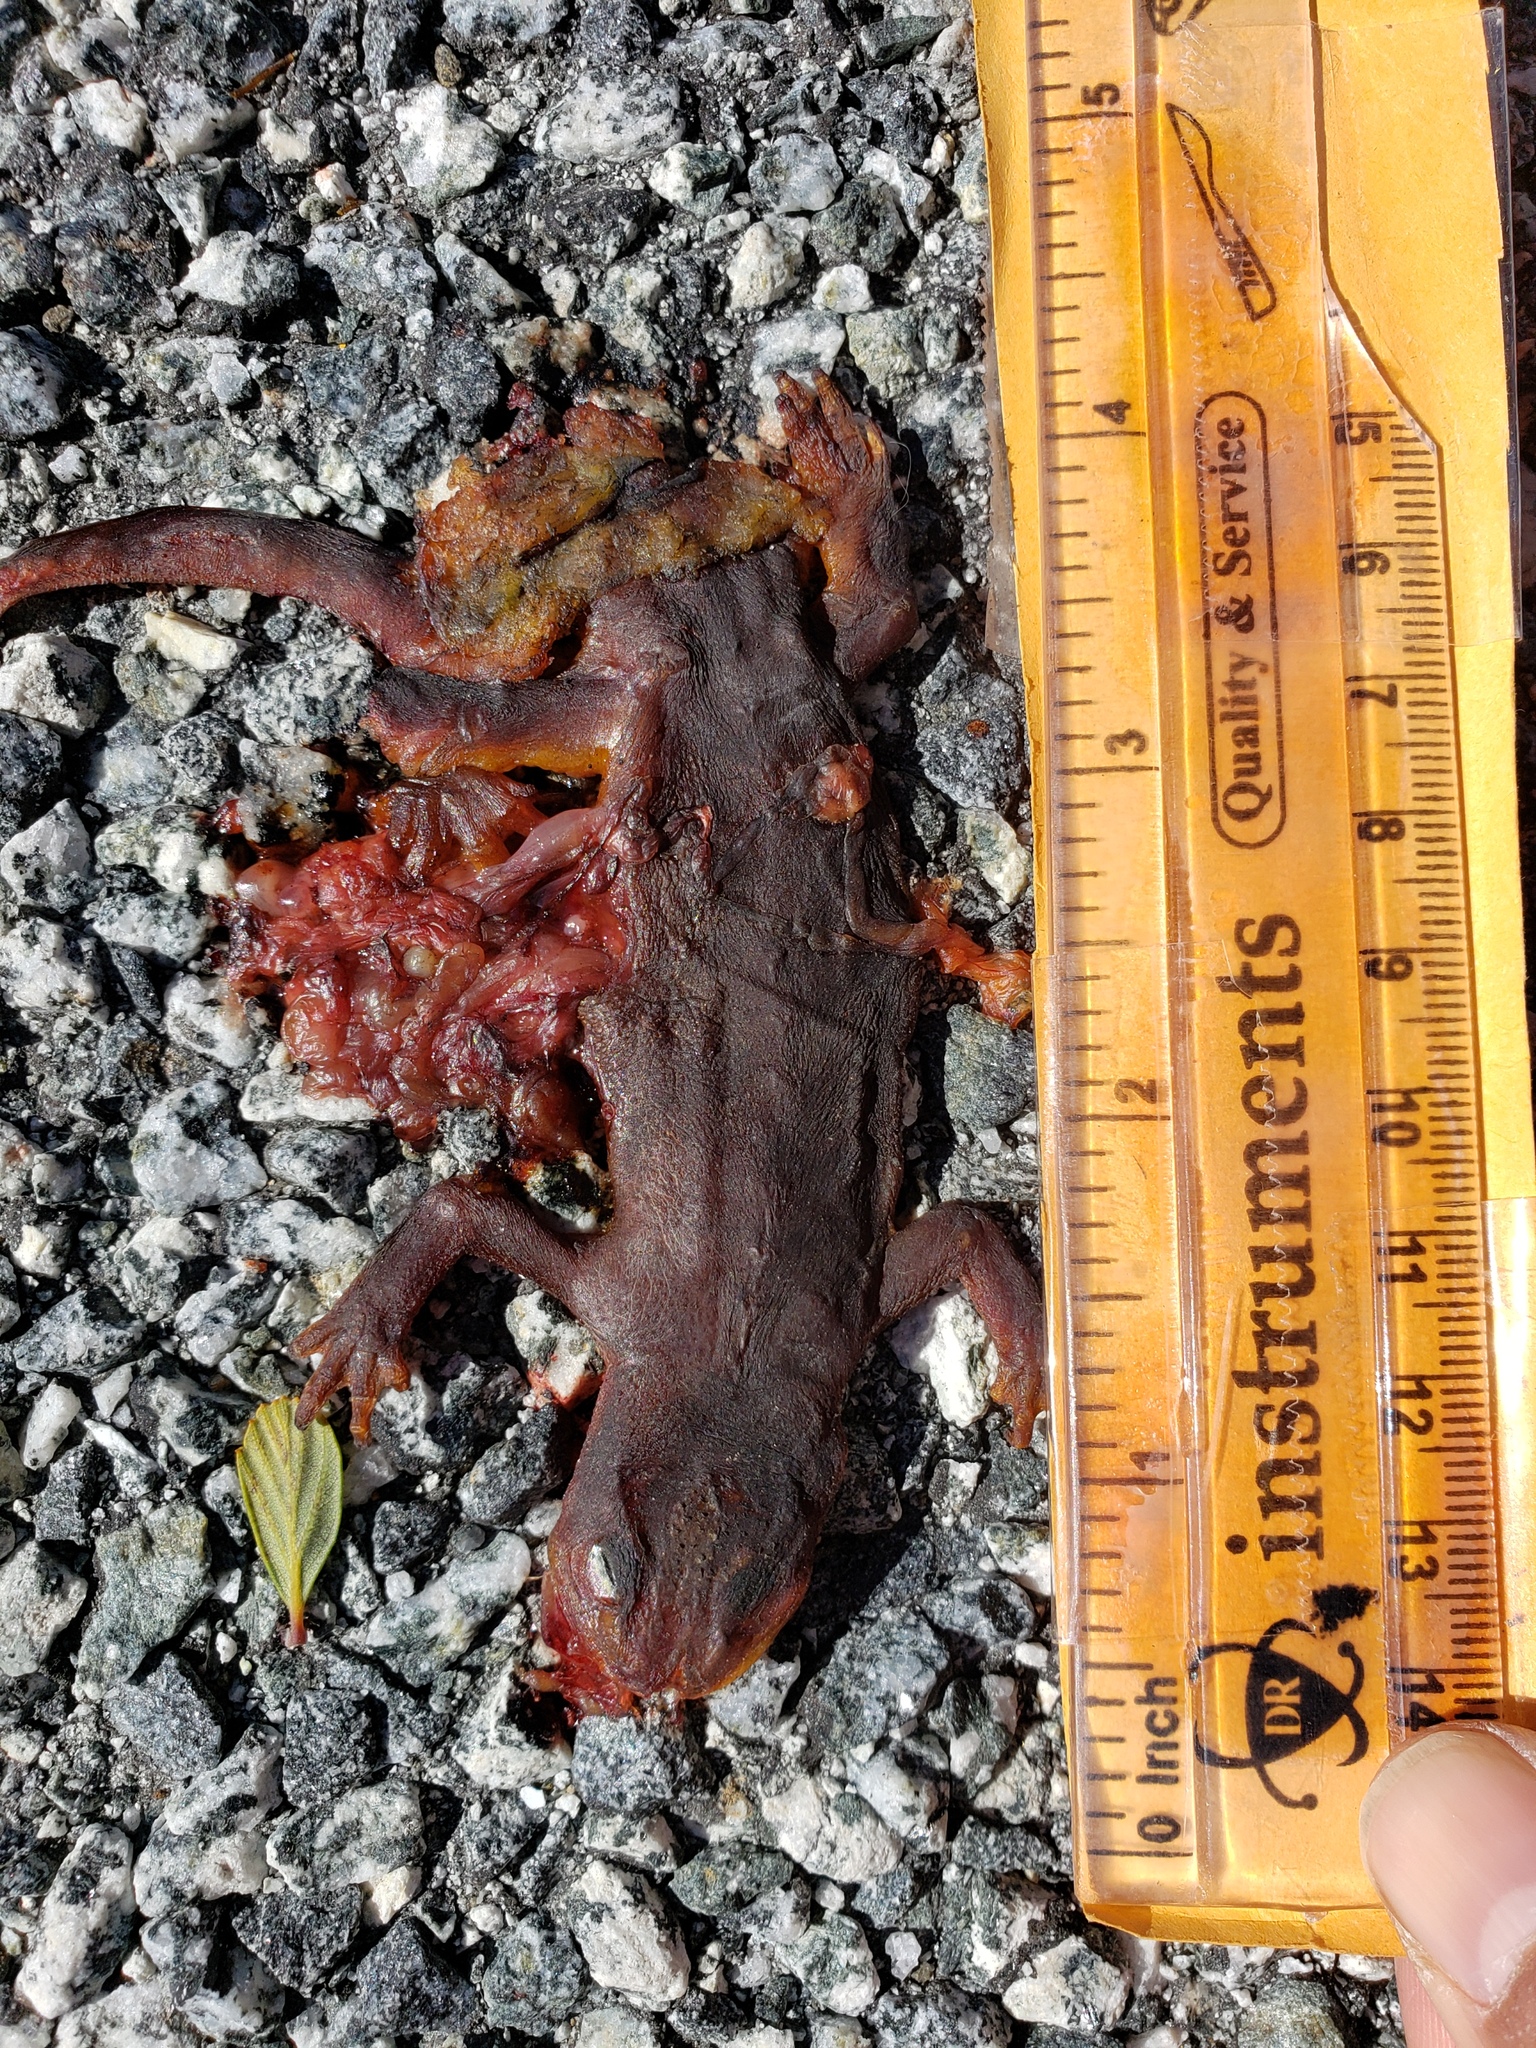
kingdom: Animalia
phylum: Chordata
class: Amphibia
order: Caudata
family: Salamandridae
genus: Taricha
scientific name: Taricha
